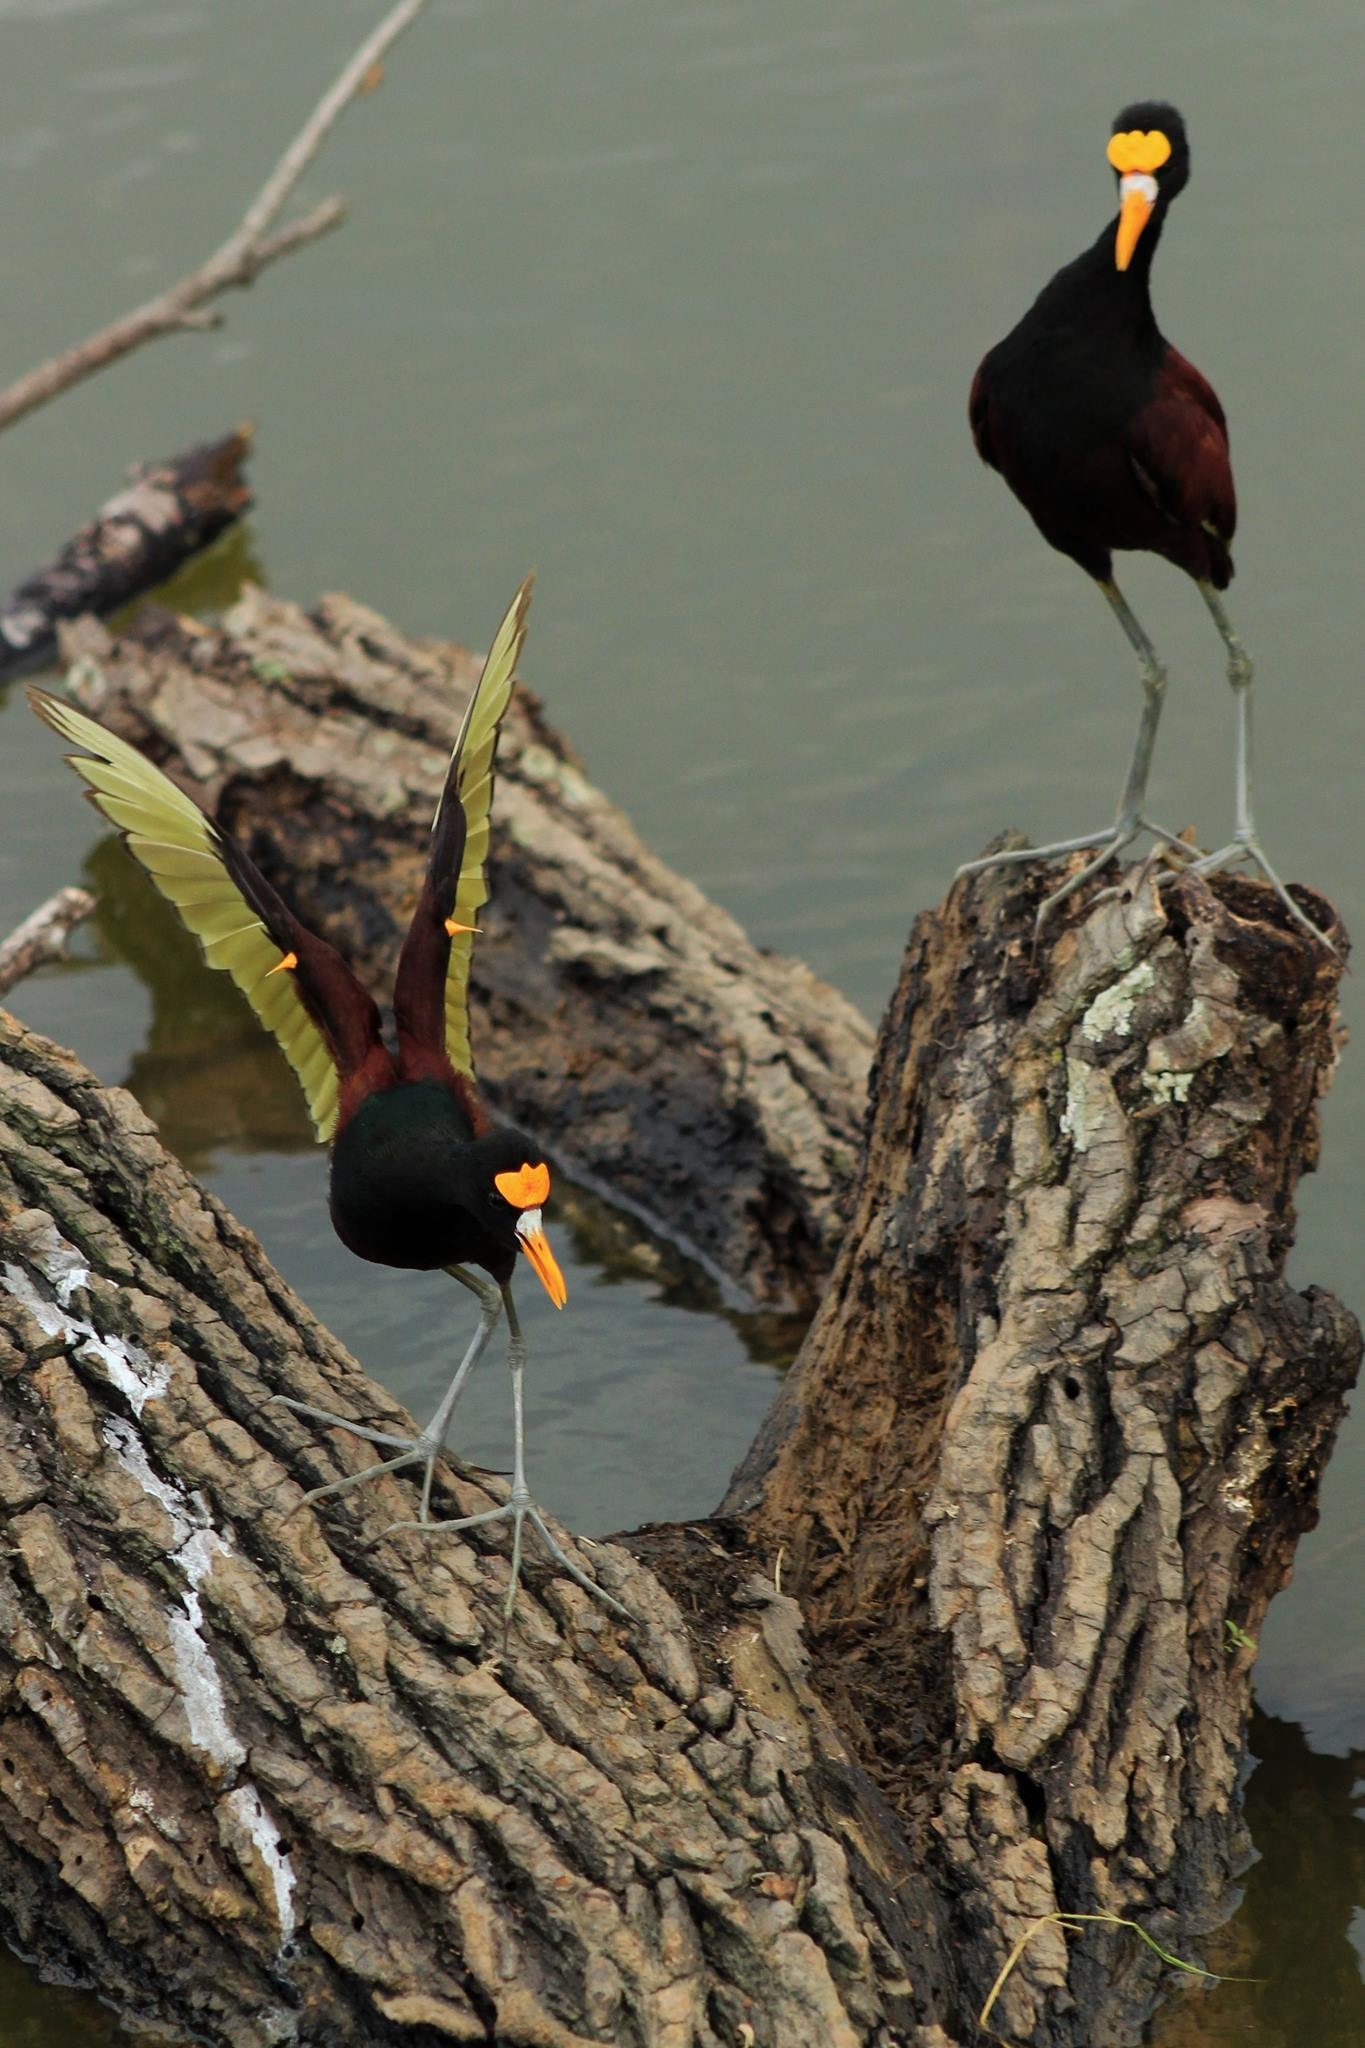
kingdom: Animalia
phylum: Chordata
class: Aves
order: Charadriiformes
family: Jacanidae
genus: Jacana
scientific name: Jacana spinosa
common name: Northern jacana
